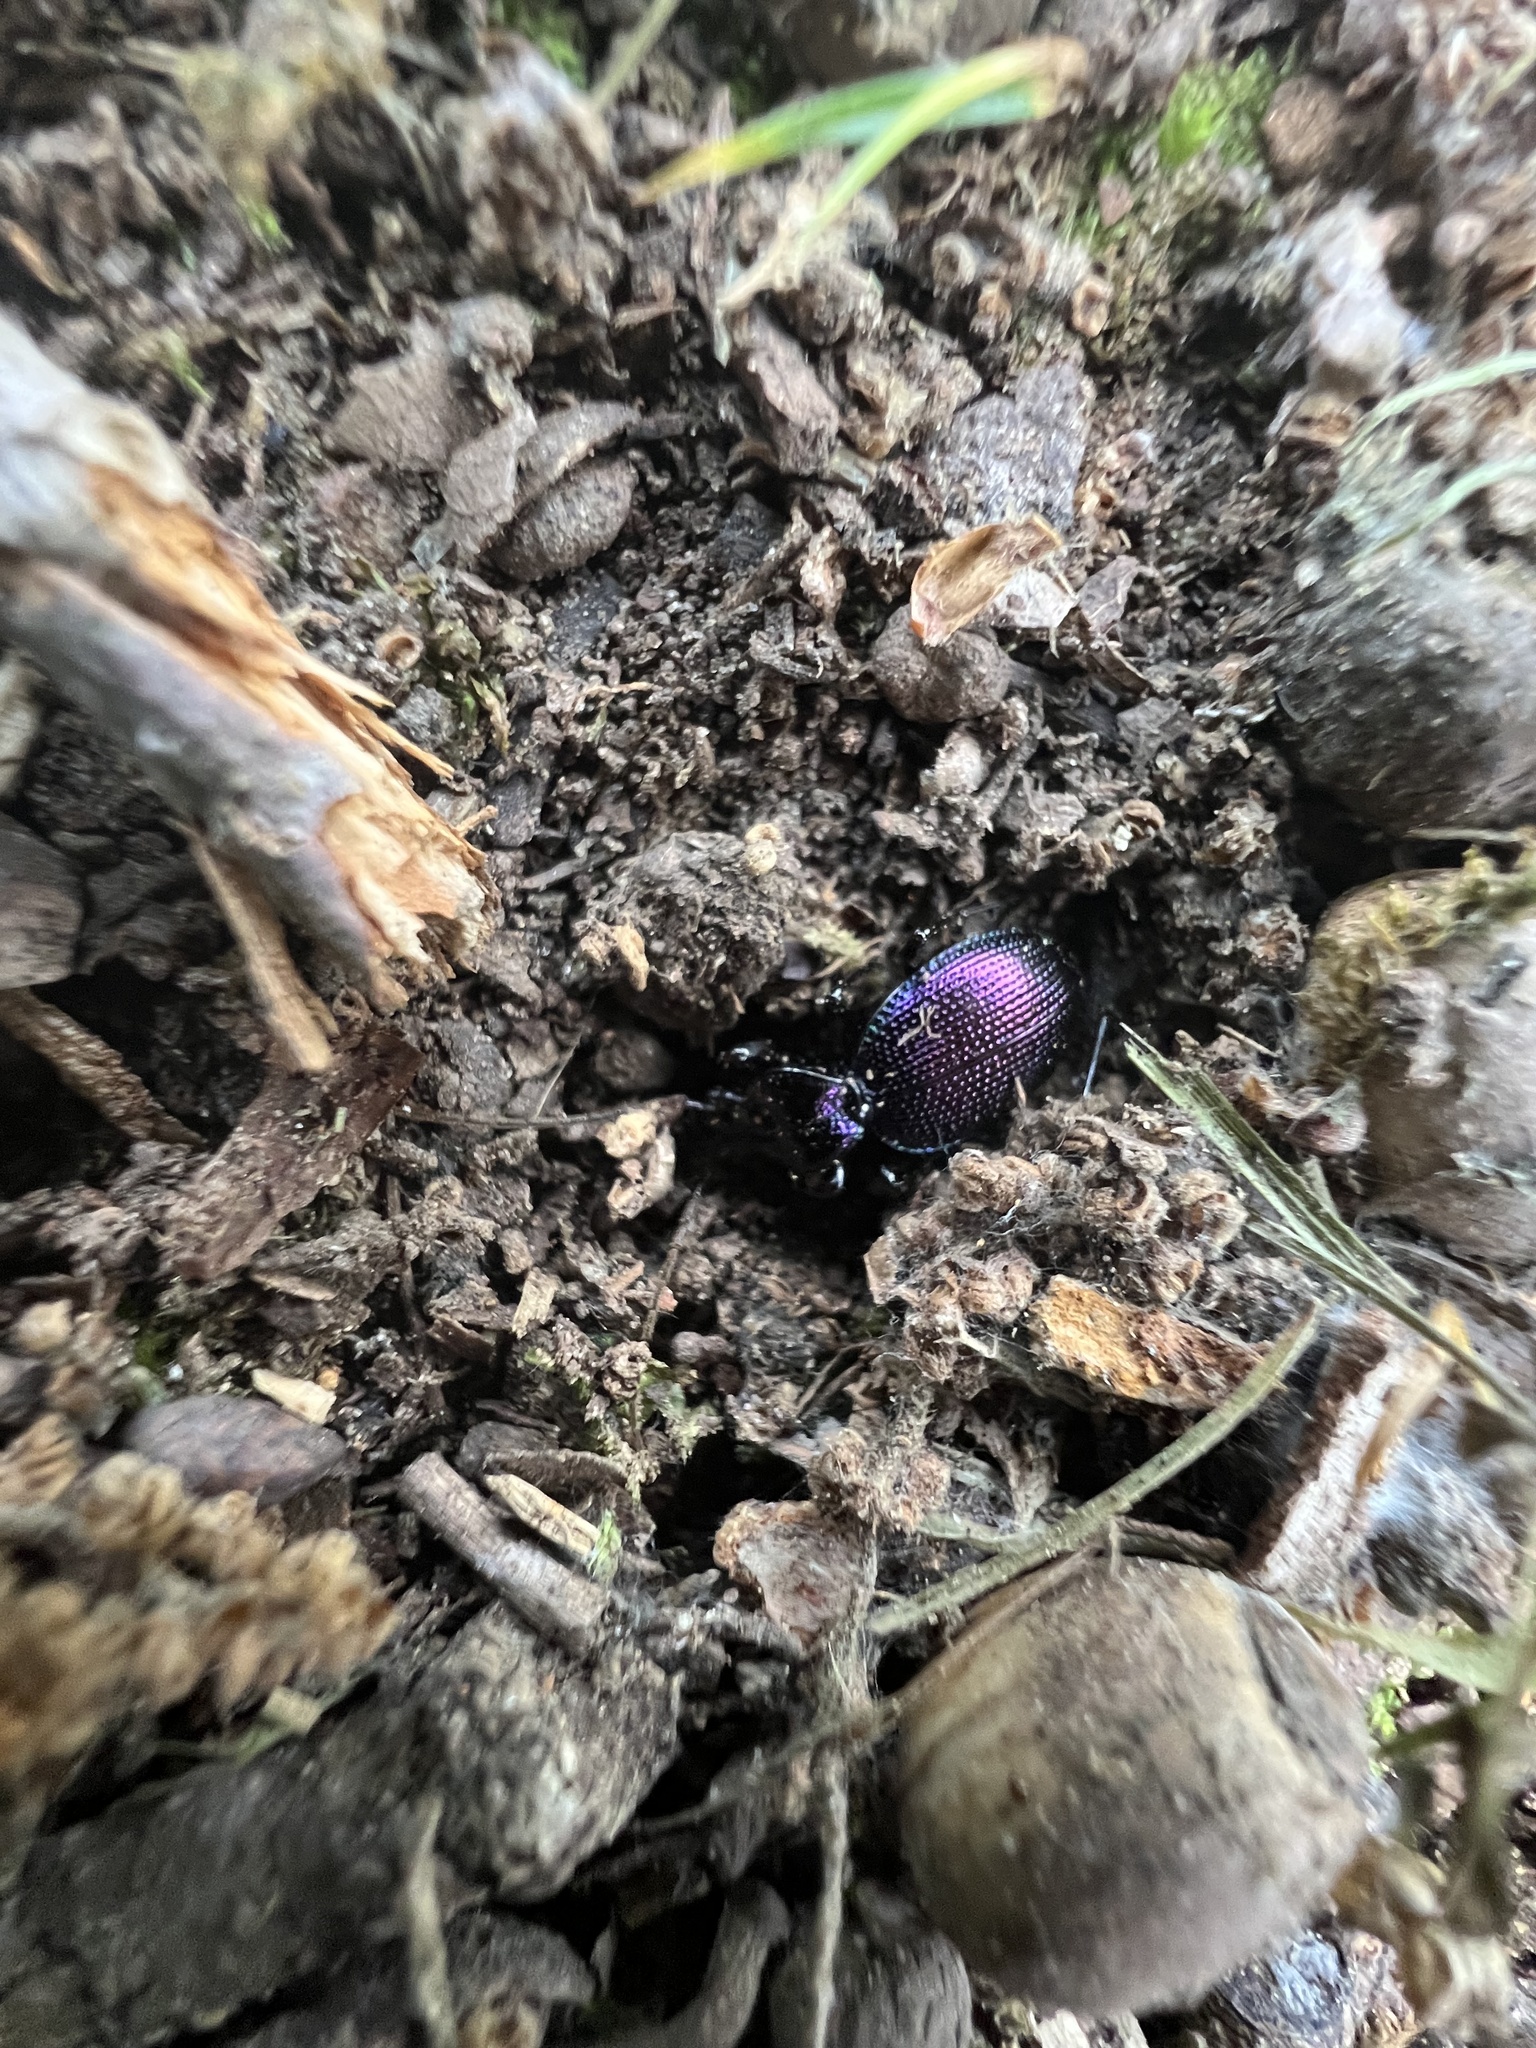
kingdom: Animalia
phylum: Arthropoda
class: Insecta
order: Coleoptera
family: Carabidae
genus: Scaphinotus
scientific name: Scaphinotus cavicollis
